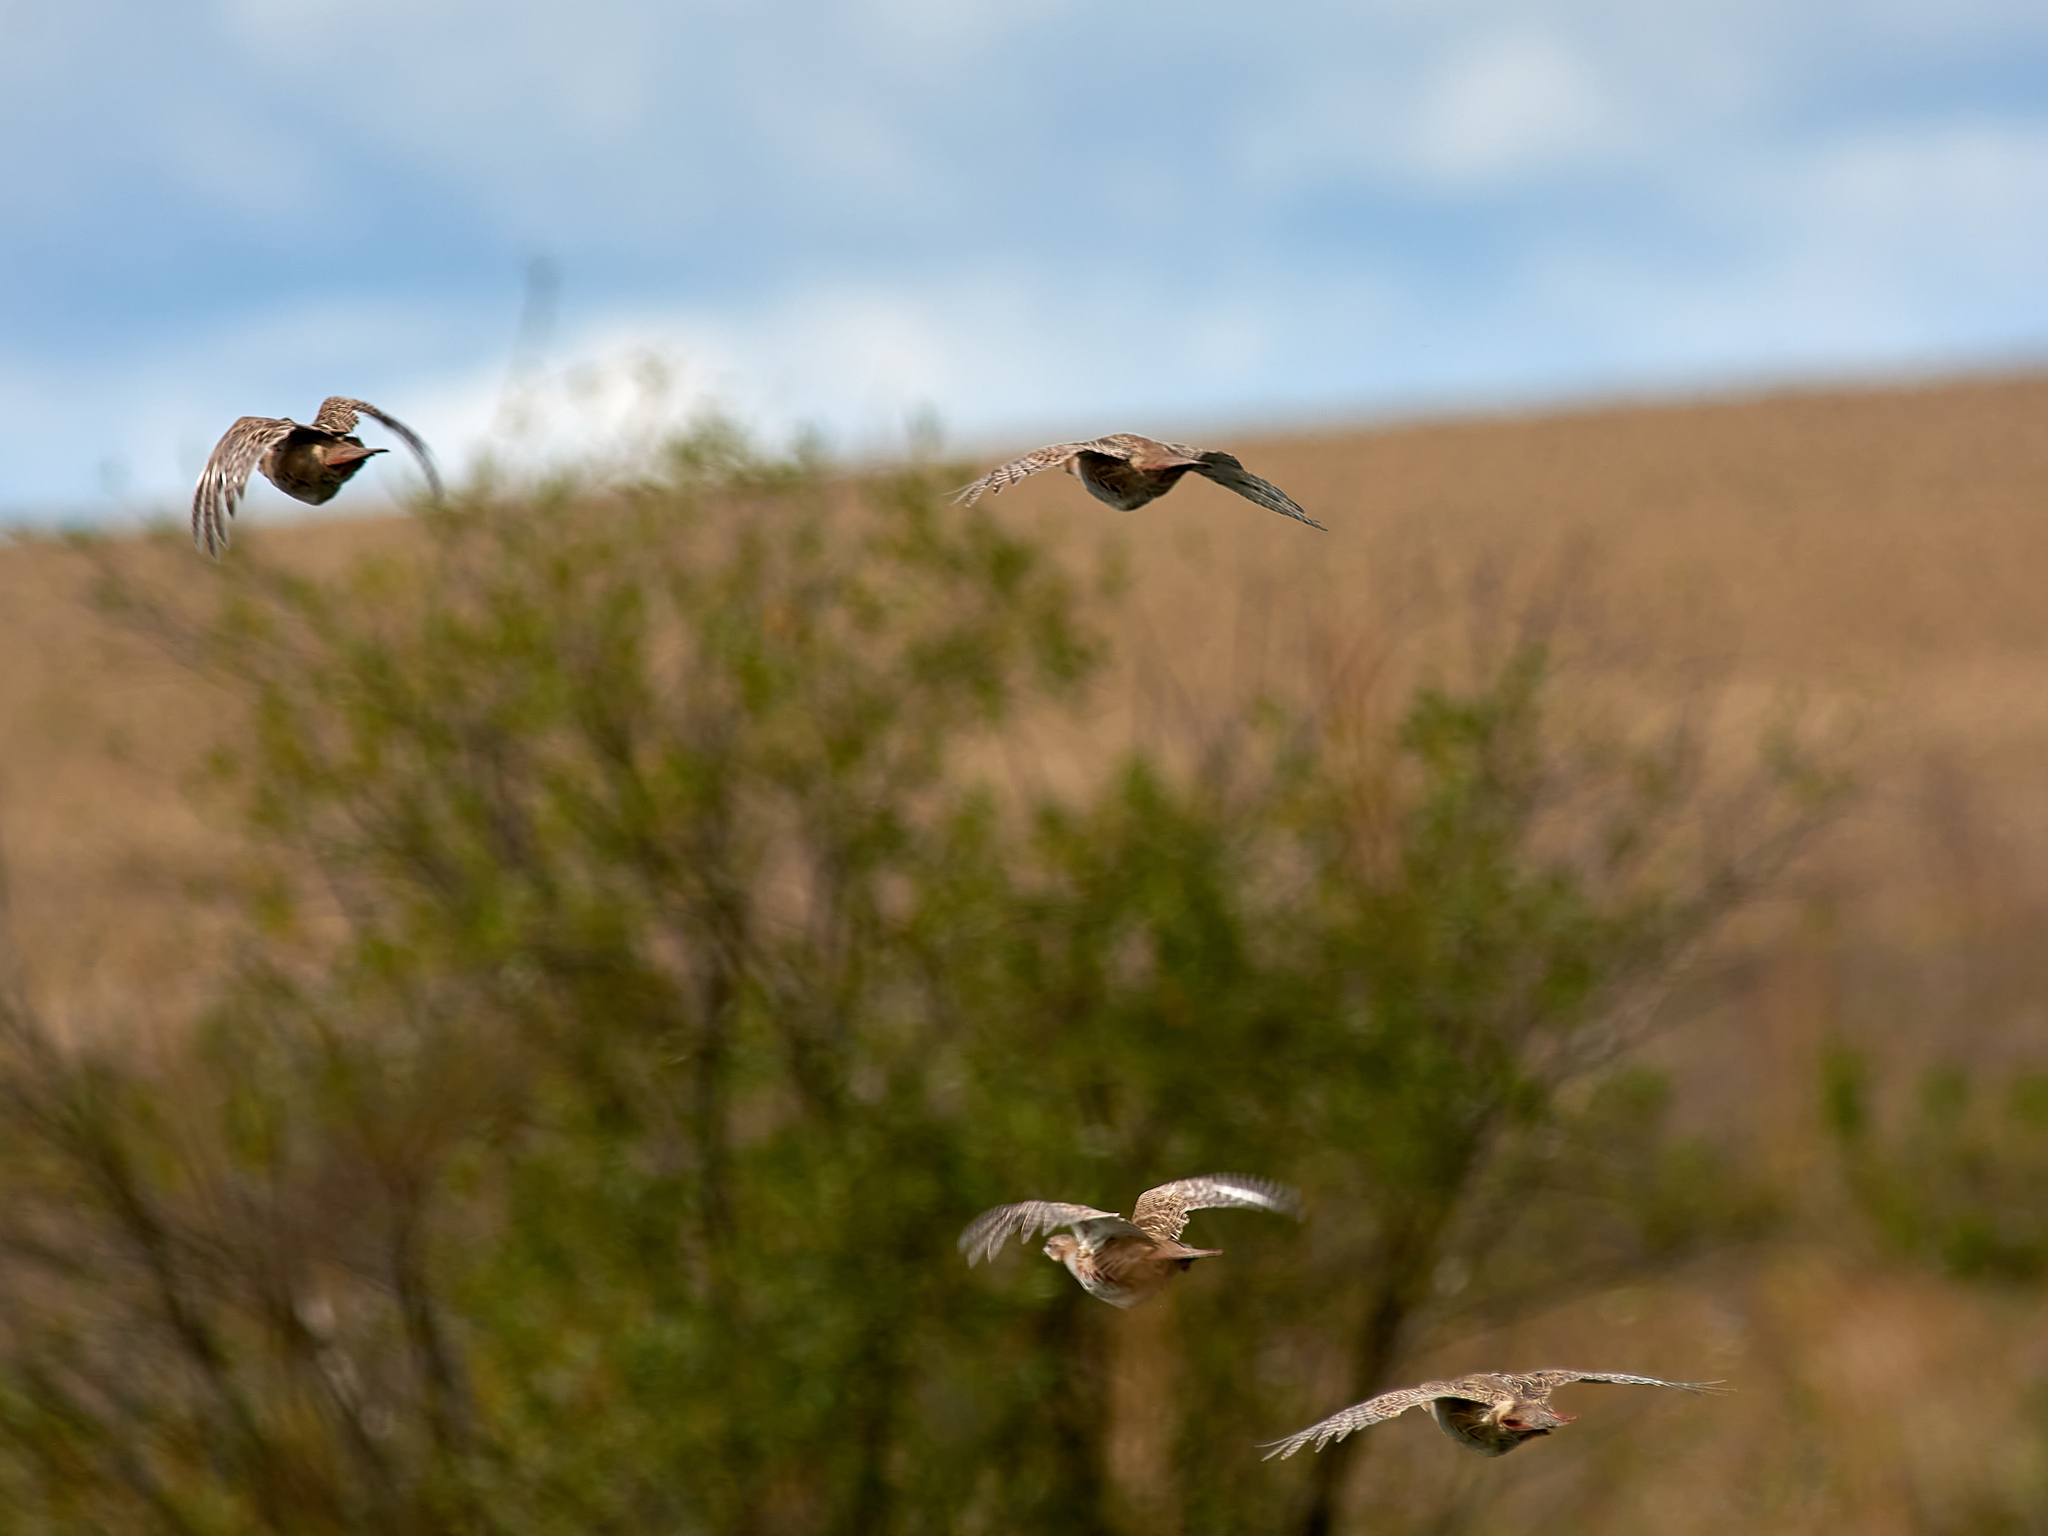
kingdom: Animalia
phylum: Chordata
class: Aves
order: Galliformes
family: Phasianidae
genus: Perdix
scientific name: Perdix perdix
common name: Grey partridge
